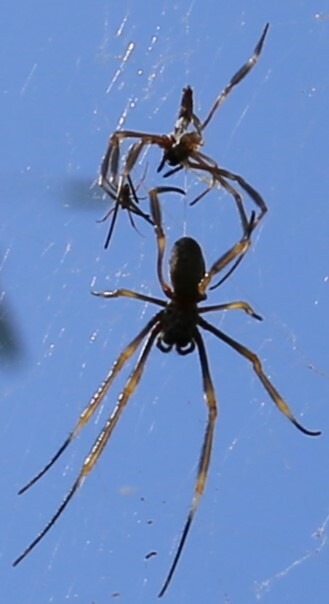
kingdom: Animalia
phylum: Arthropoda
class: Arachnida
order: Araneae
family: Araneidae
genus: Trichonephila
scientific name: Trichonephila plumipes
